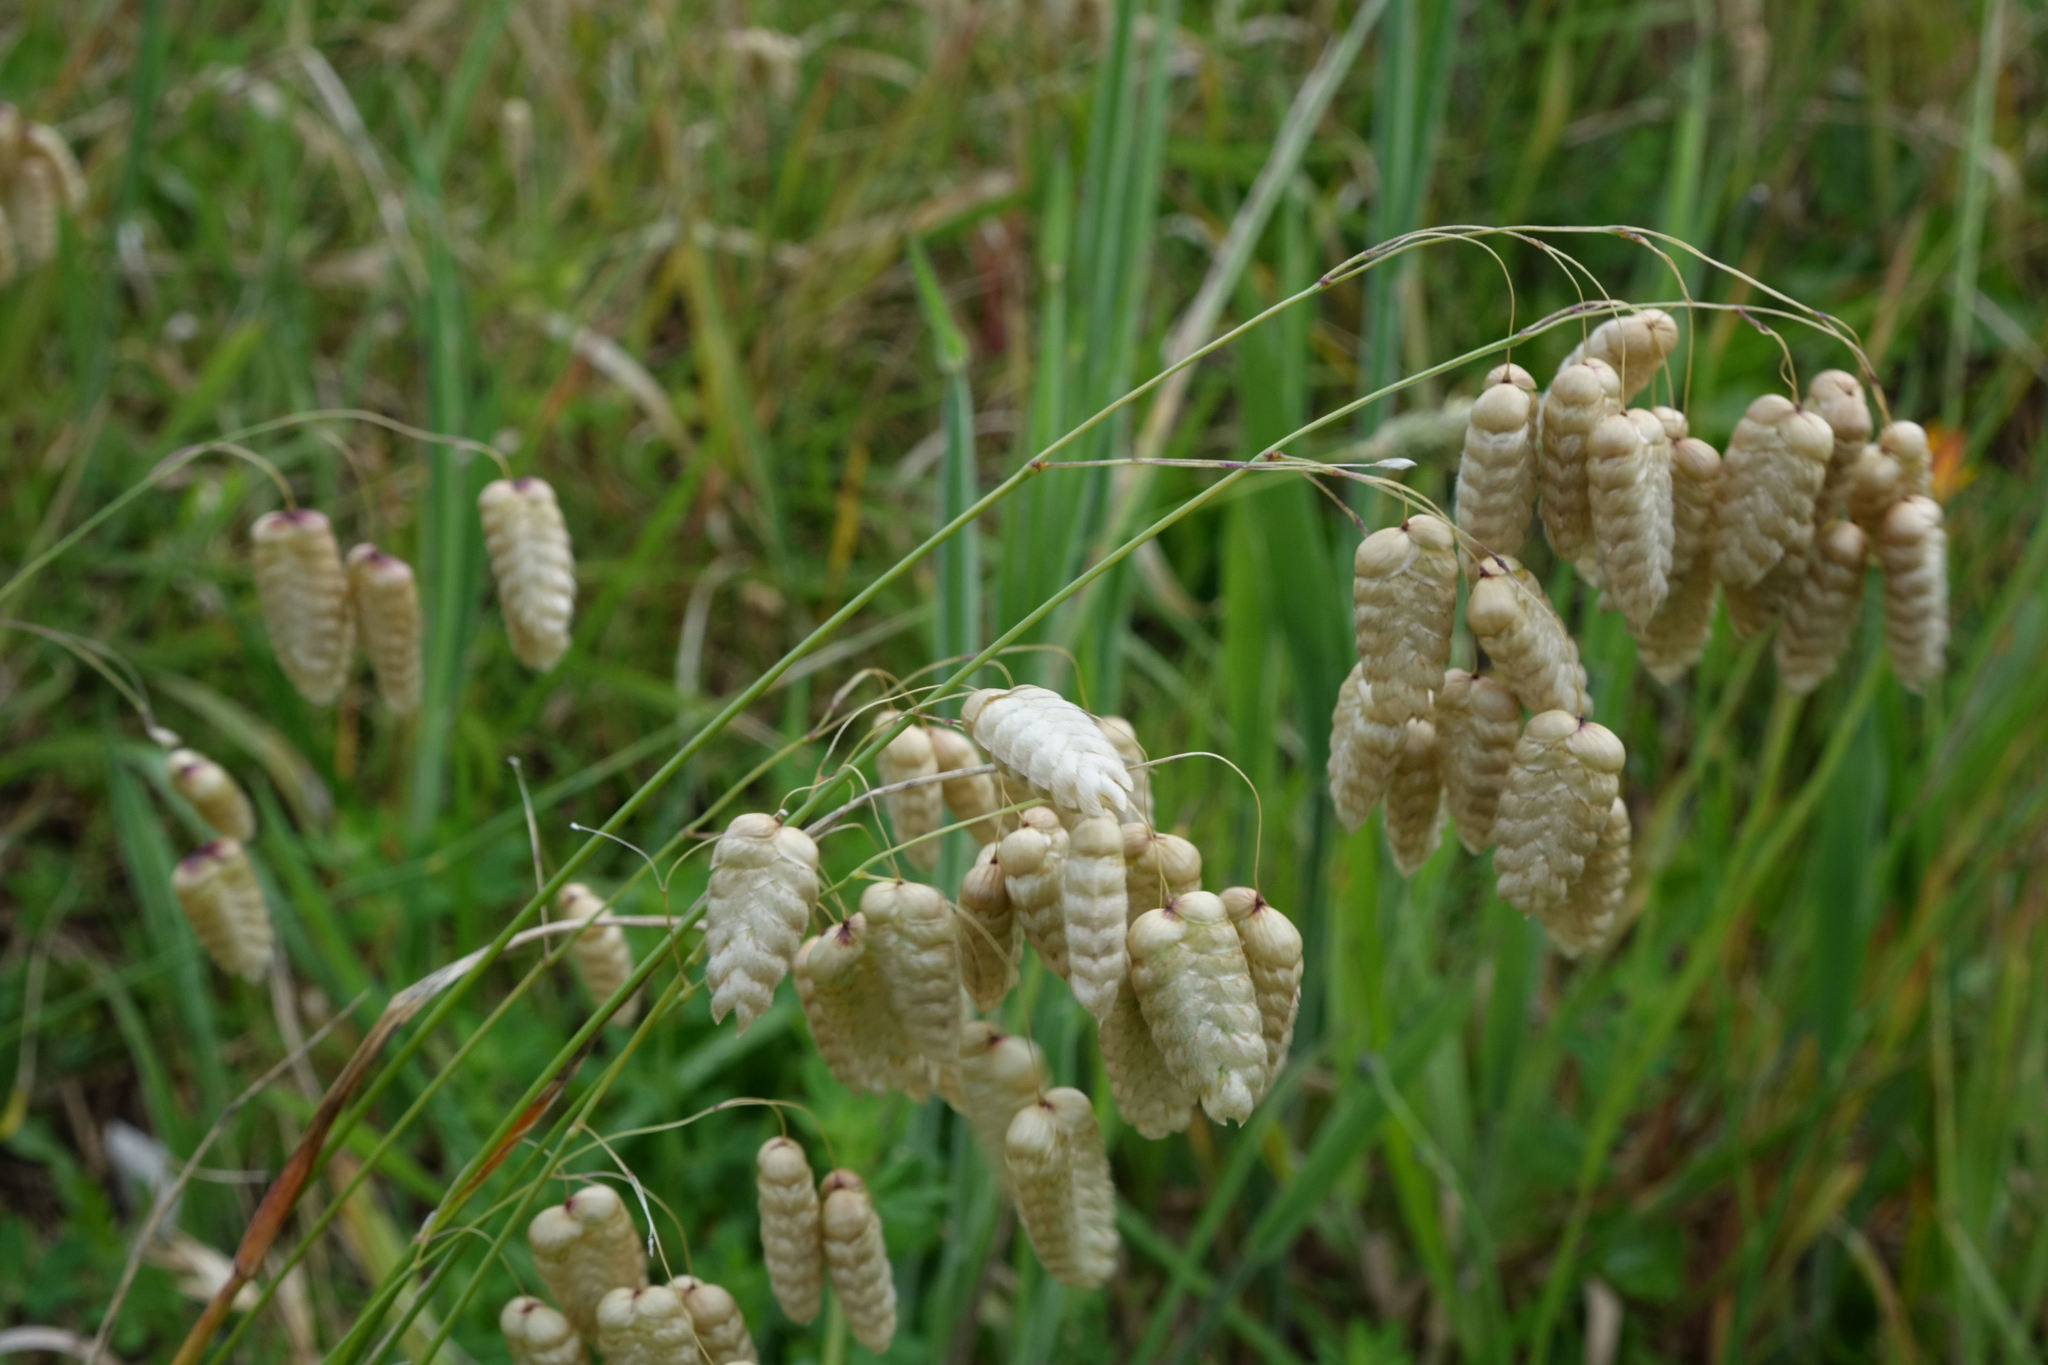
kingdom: Plantae
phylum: Tracheophyta
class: Liliopsida
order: Poales
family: Poaceae
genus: Briza
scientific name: Briza maxima
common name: Big quakinggrass
